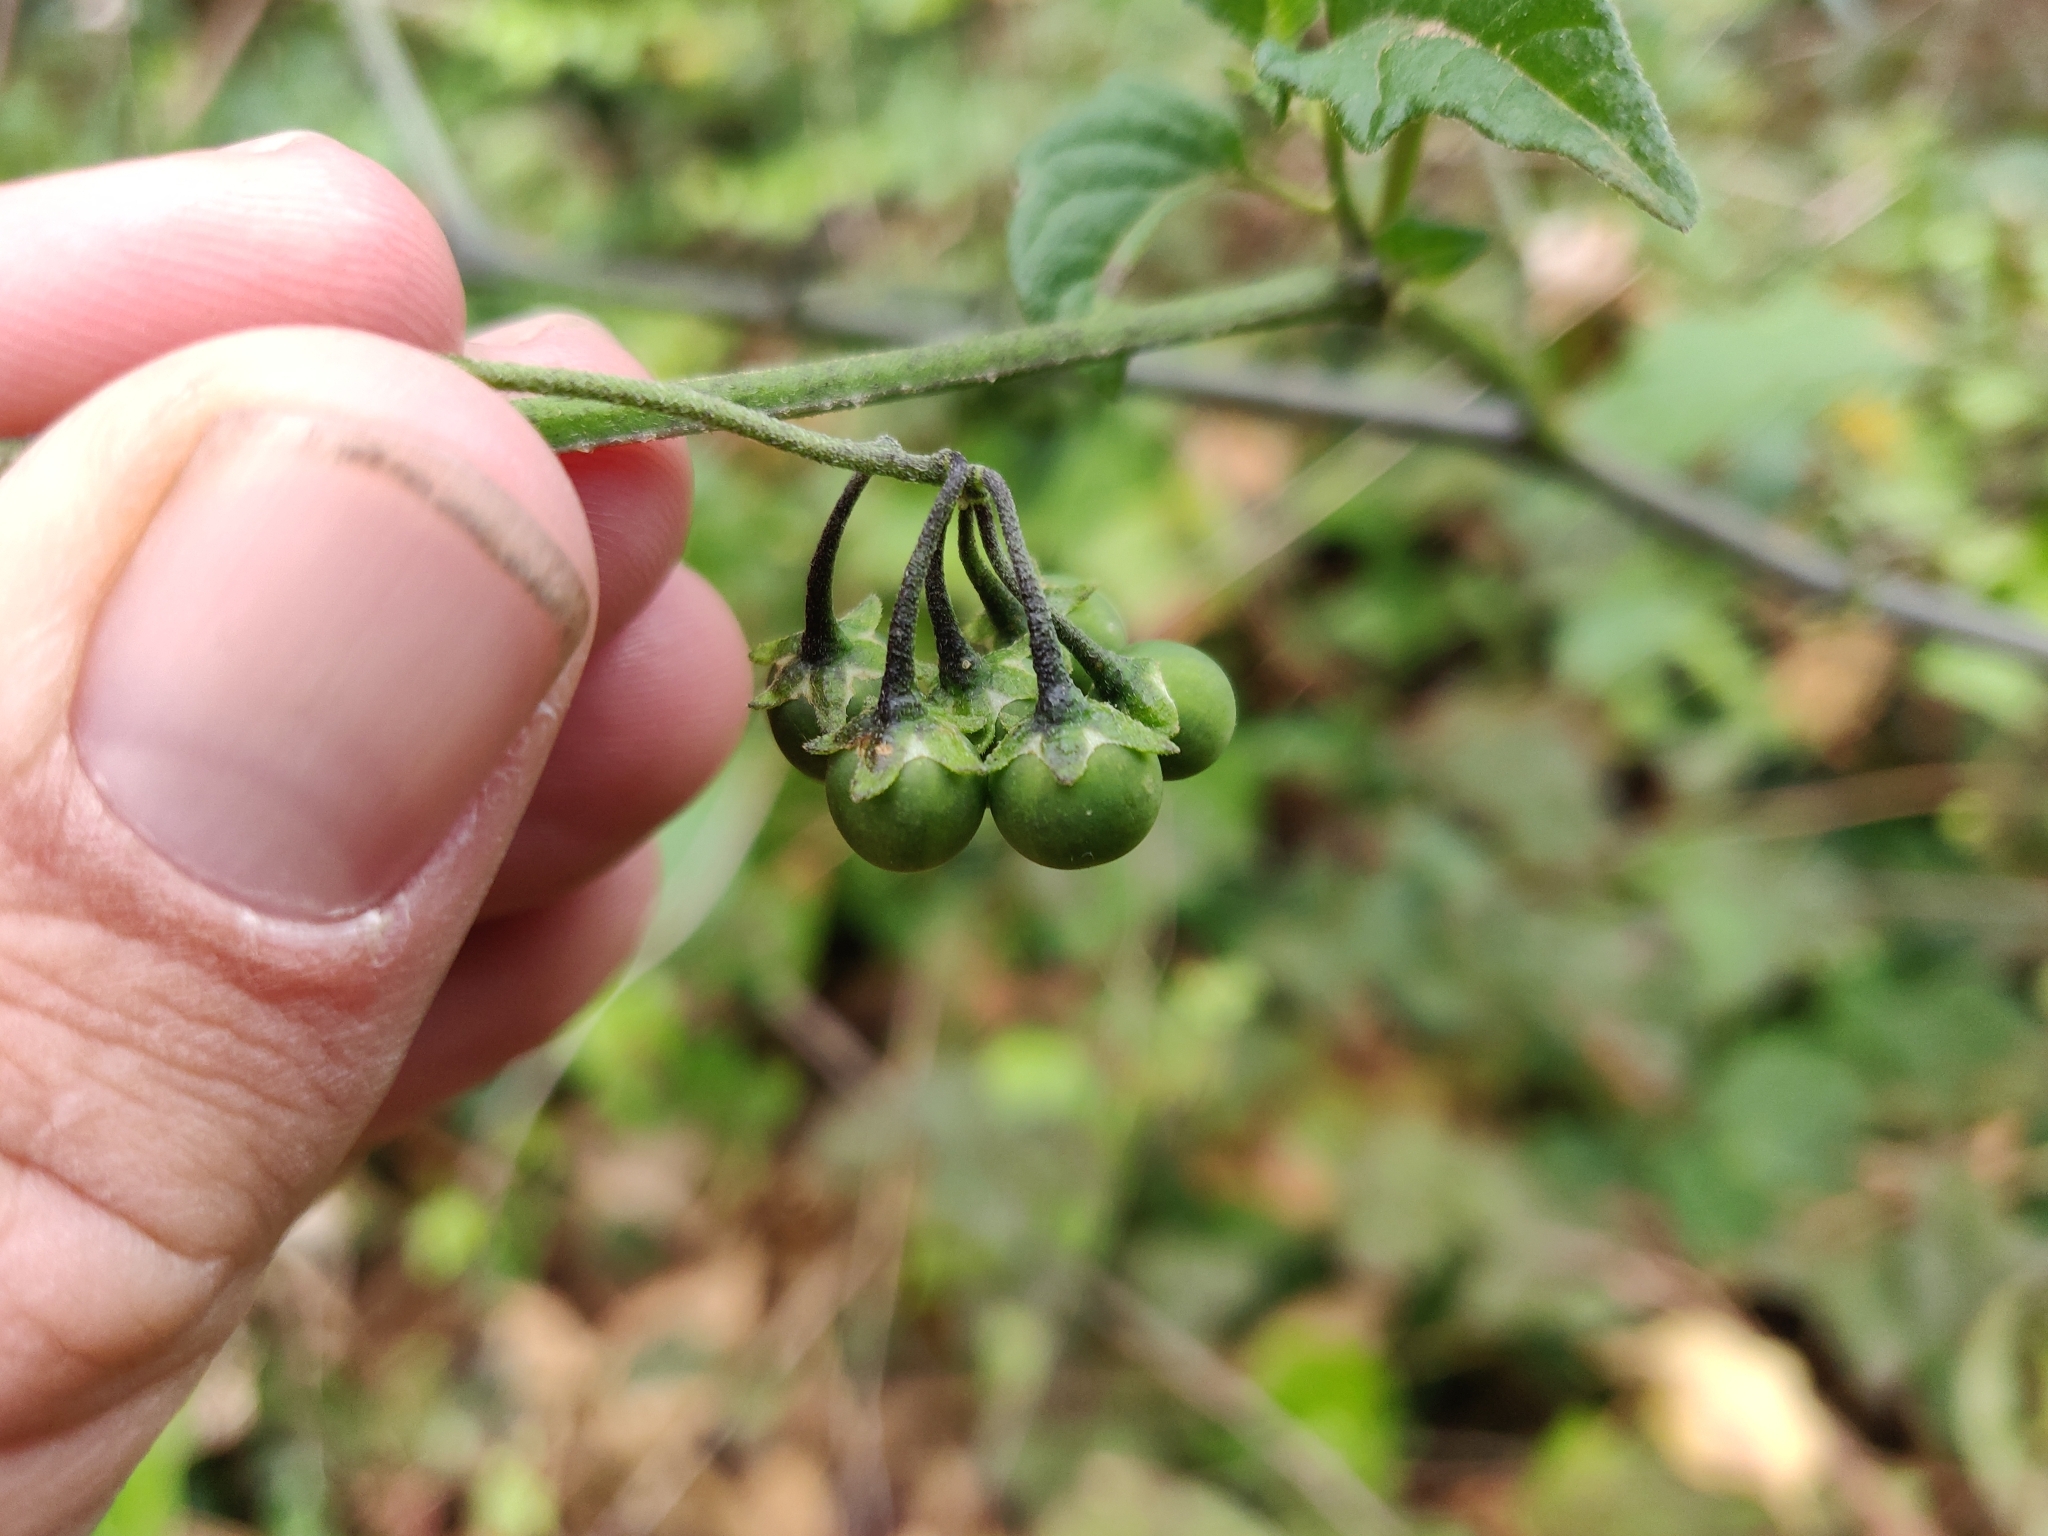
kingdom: Plantae
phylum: Tracheophyta
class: Magnoliopsida
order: Solanales
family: Solanaceae
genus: Solanum
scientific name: Solanum furcatum
